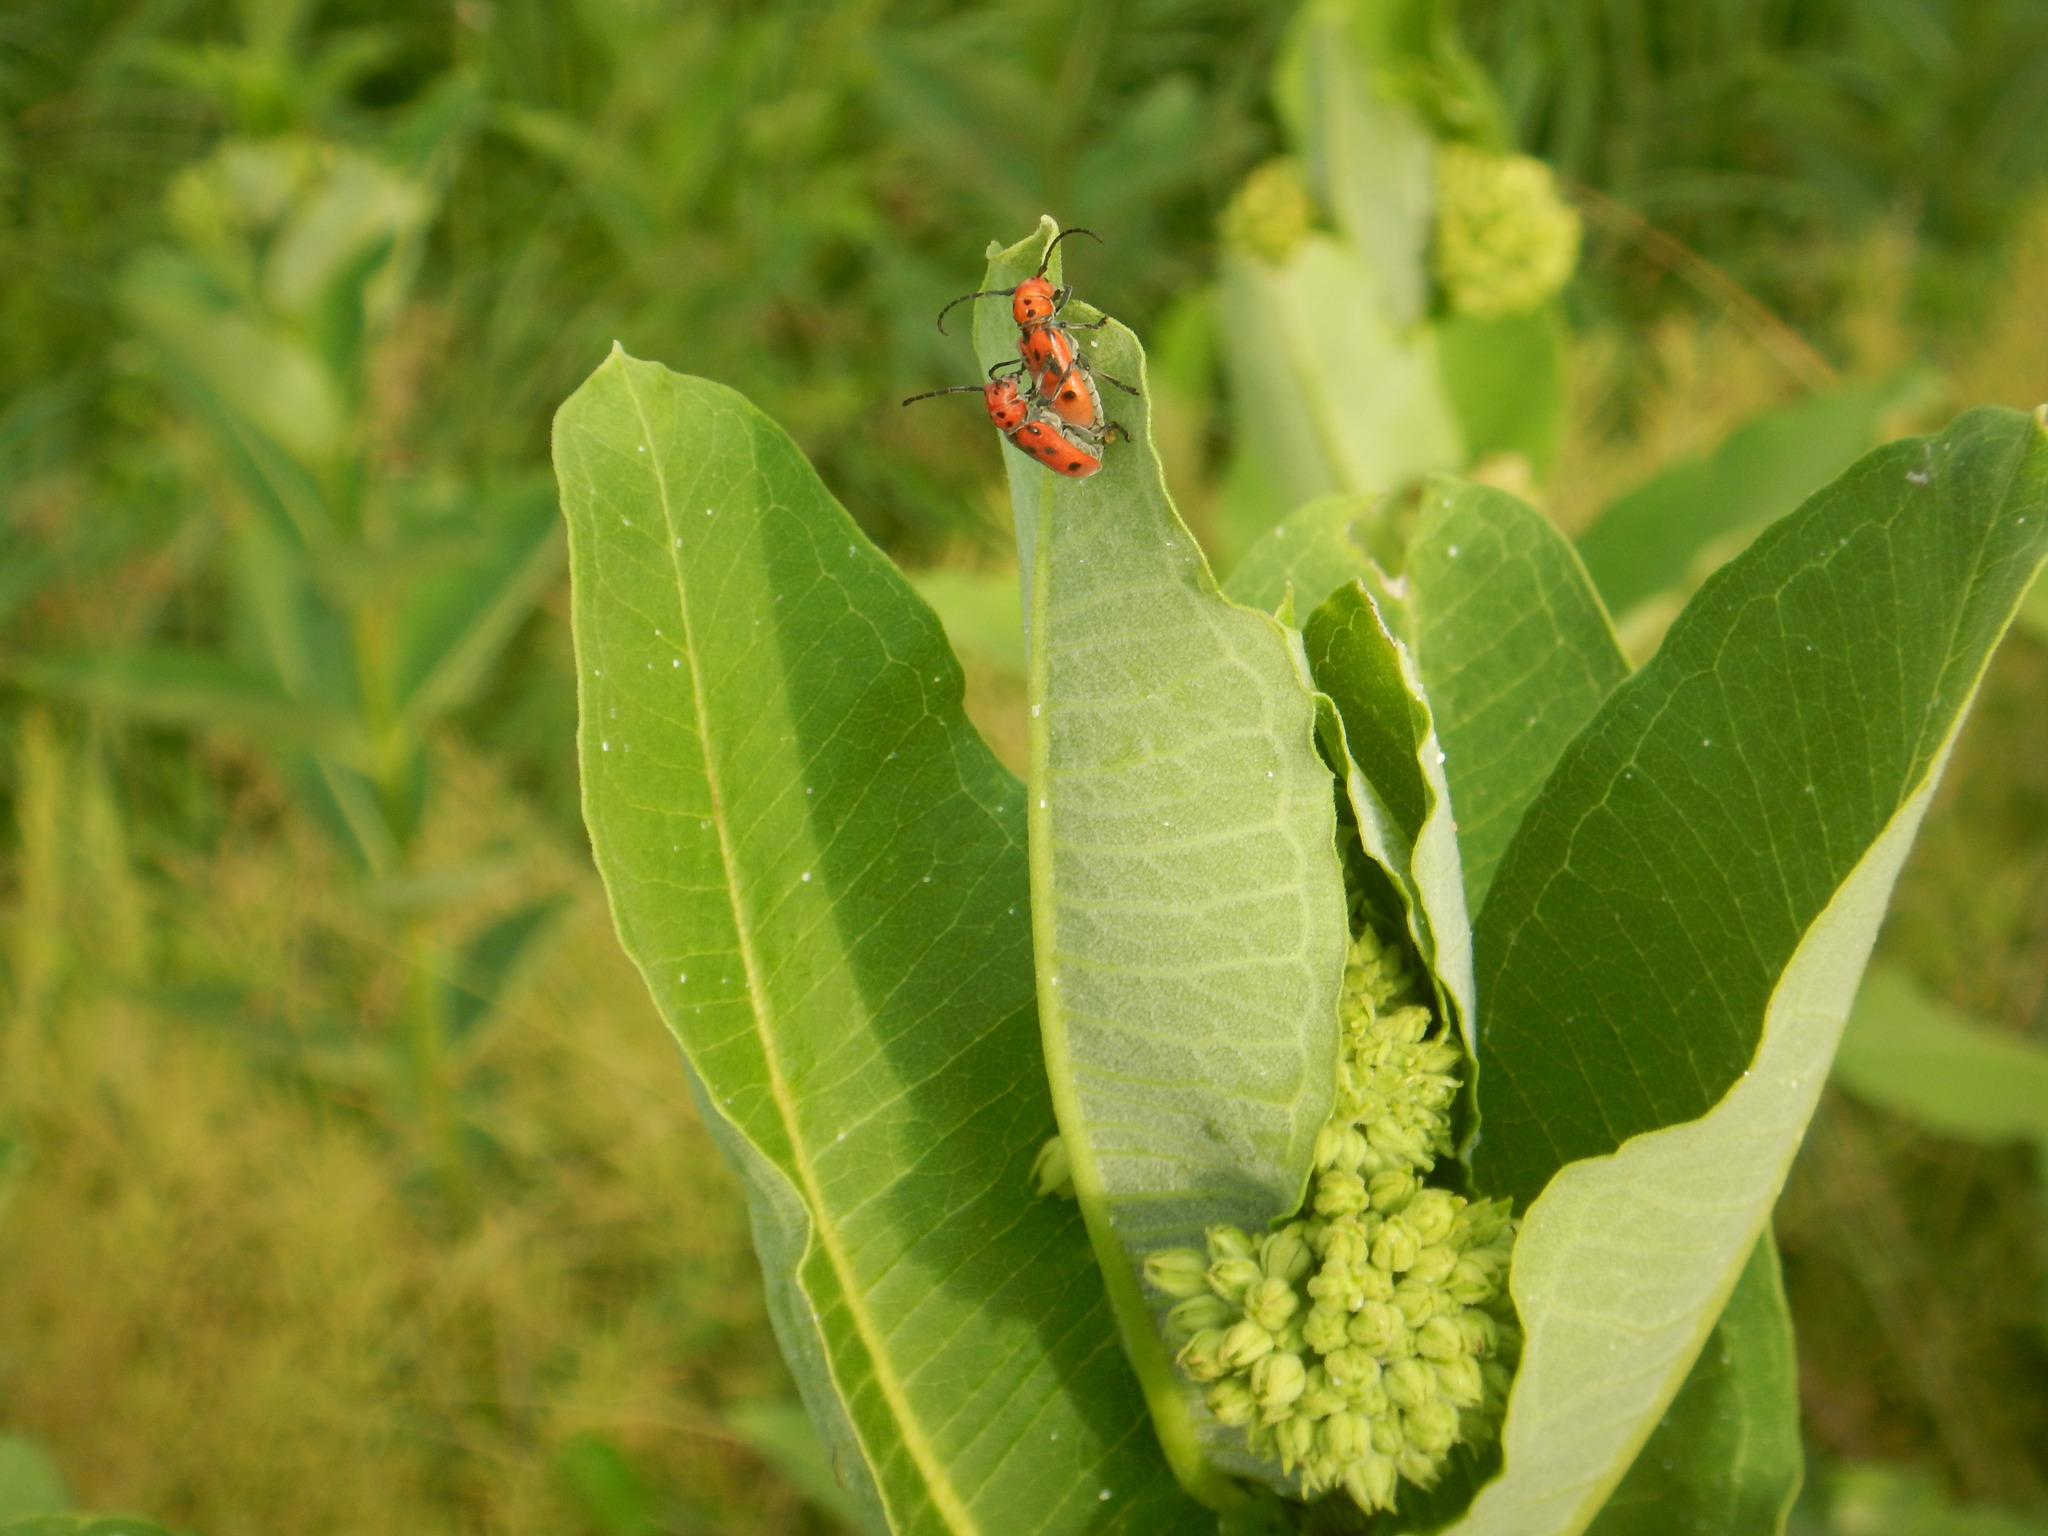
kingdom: Animalia
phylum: Arthropoda
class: Insecta
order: Coleoptera
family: Cerambycidae
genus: Tetraopes
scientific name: Tetraopes tetrophthalmus
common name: Red milkweed beetle
